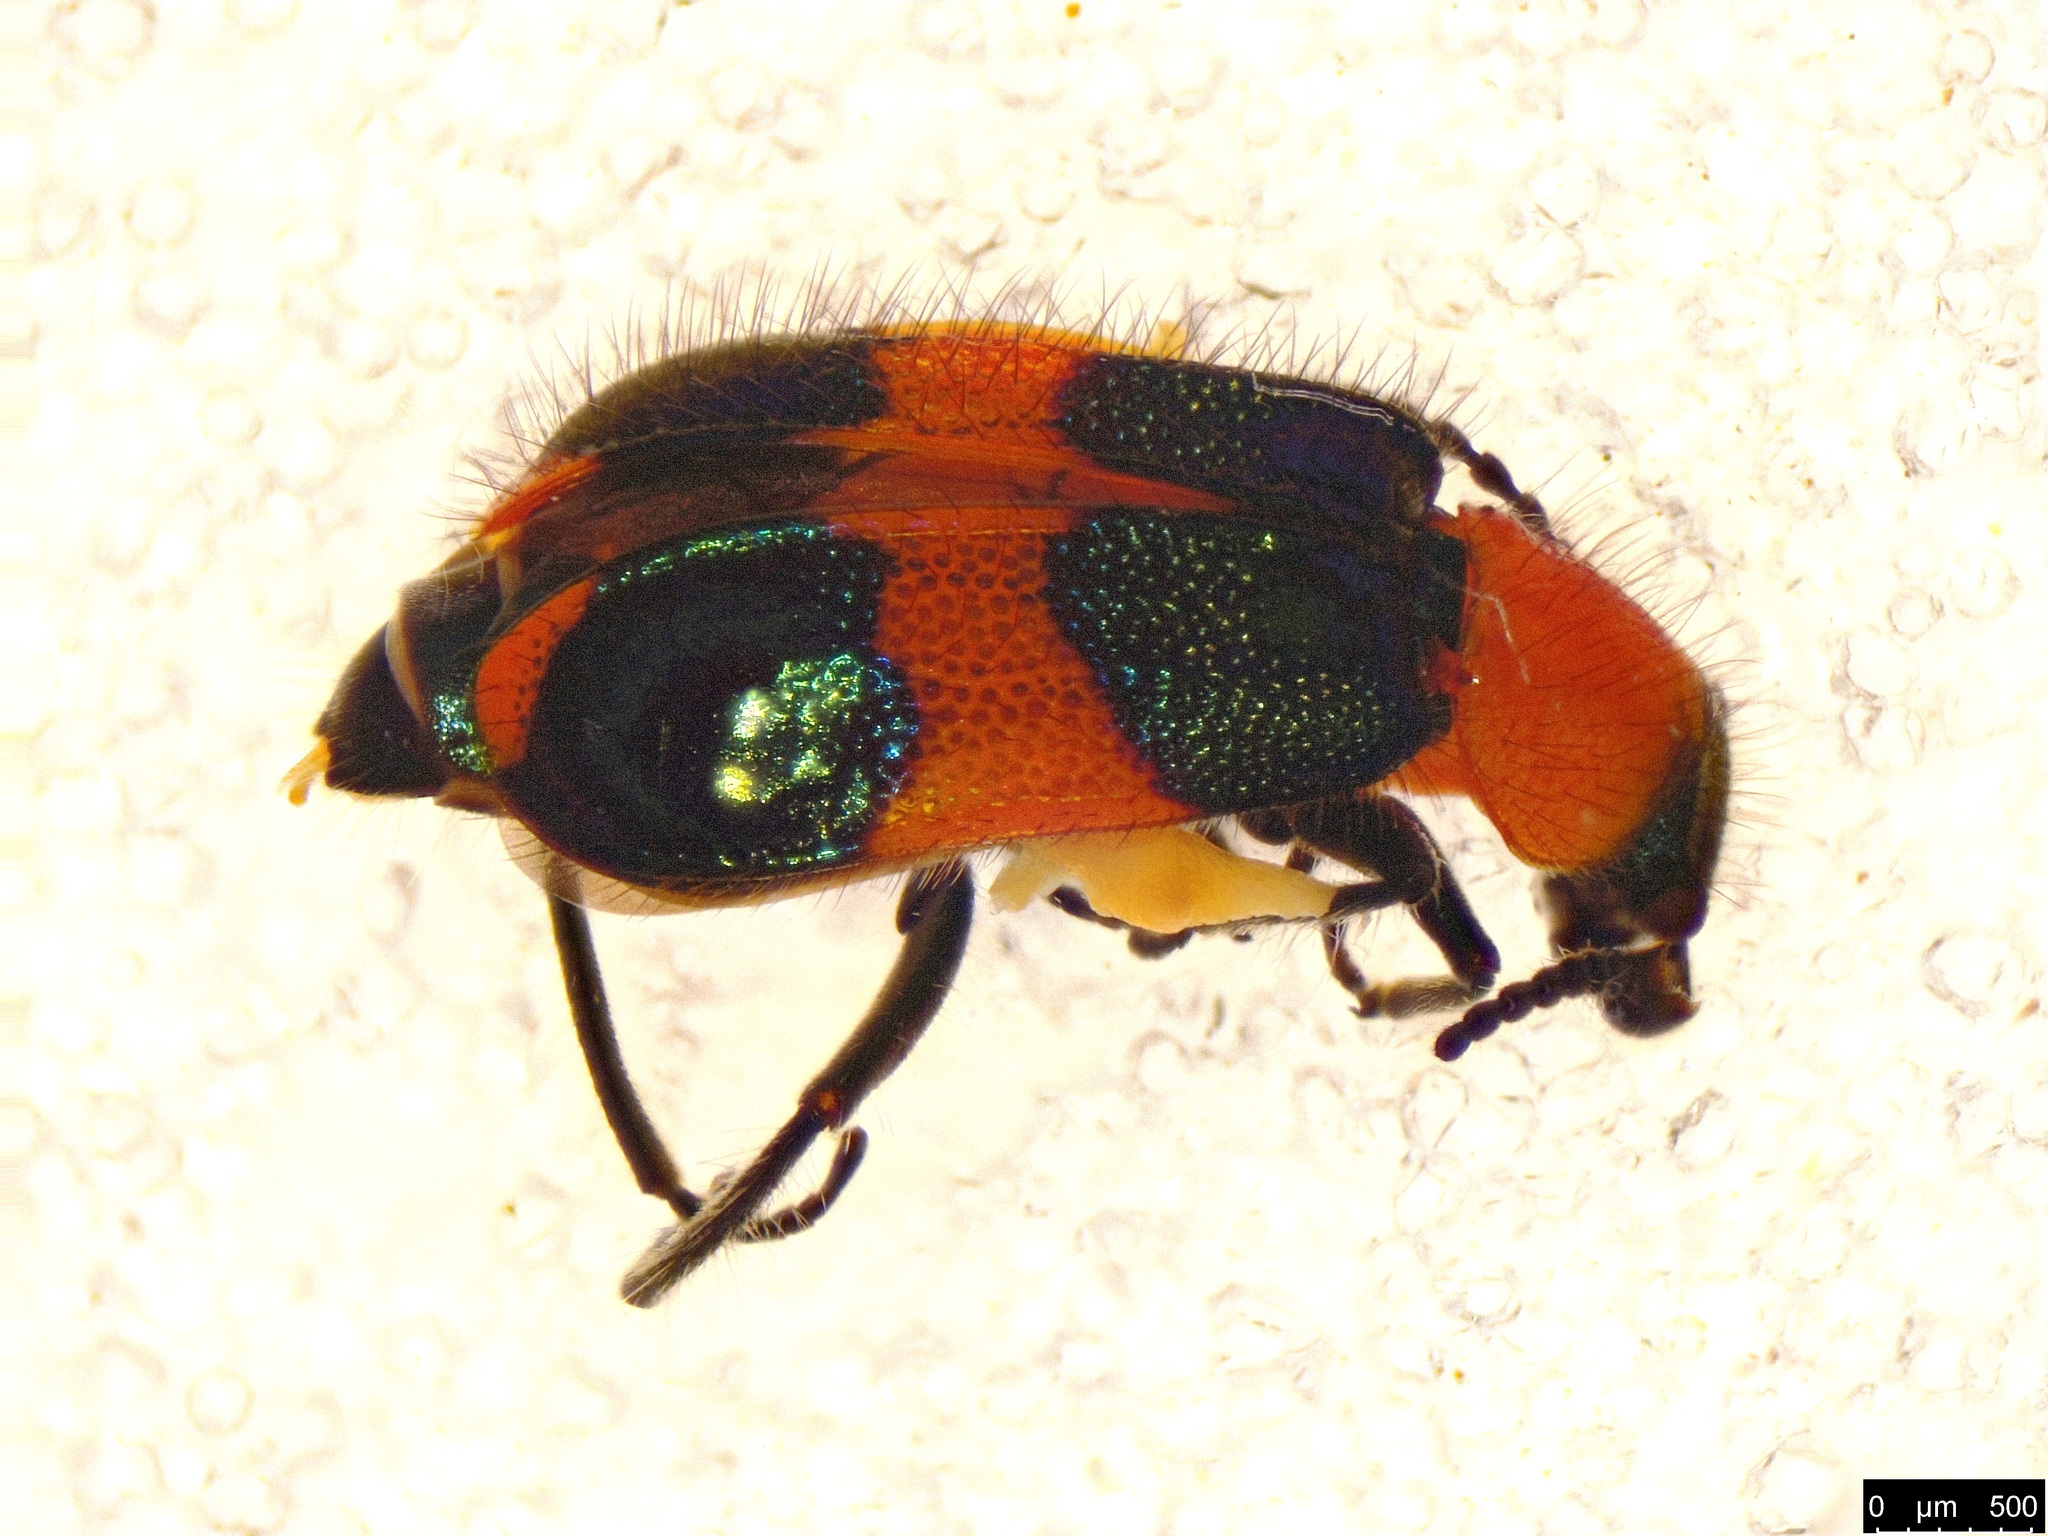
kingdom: Animalia
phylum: Arthropoda
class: Insecta
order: Coleoptera
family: Melyridae
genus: Dicranolaius
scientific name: Dicranolaius bellulus
